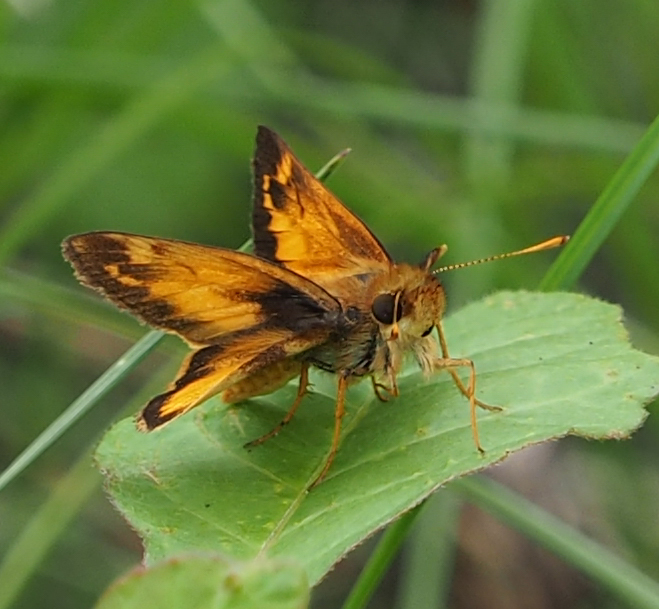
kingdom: Animalia
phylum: Arthropoda
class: Insecta
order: Lepidoptera
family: Hesperiidae
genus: Lon
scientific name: Lon zabulon
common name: Zabulon skipper
